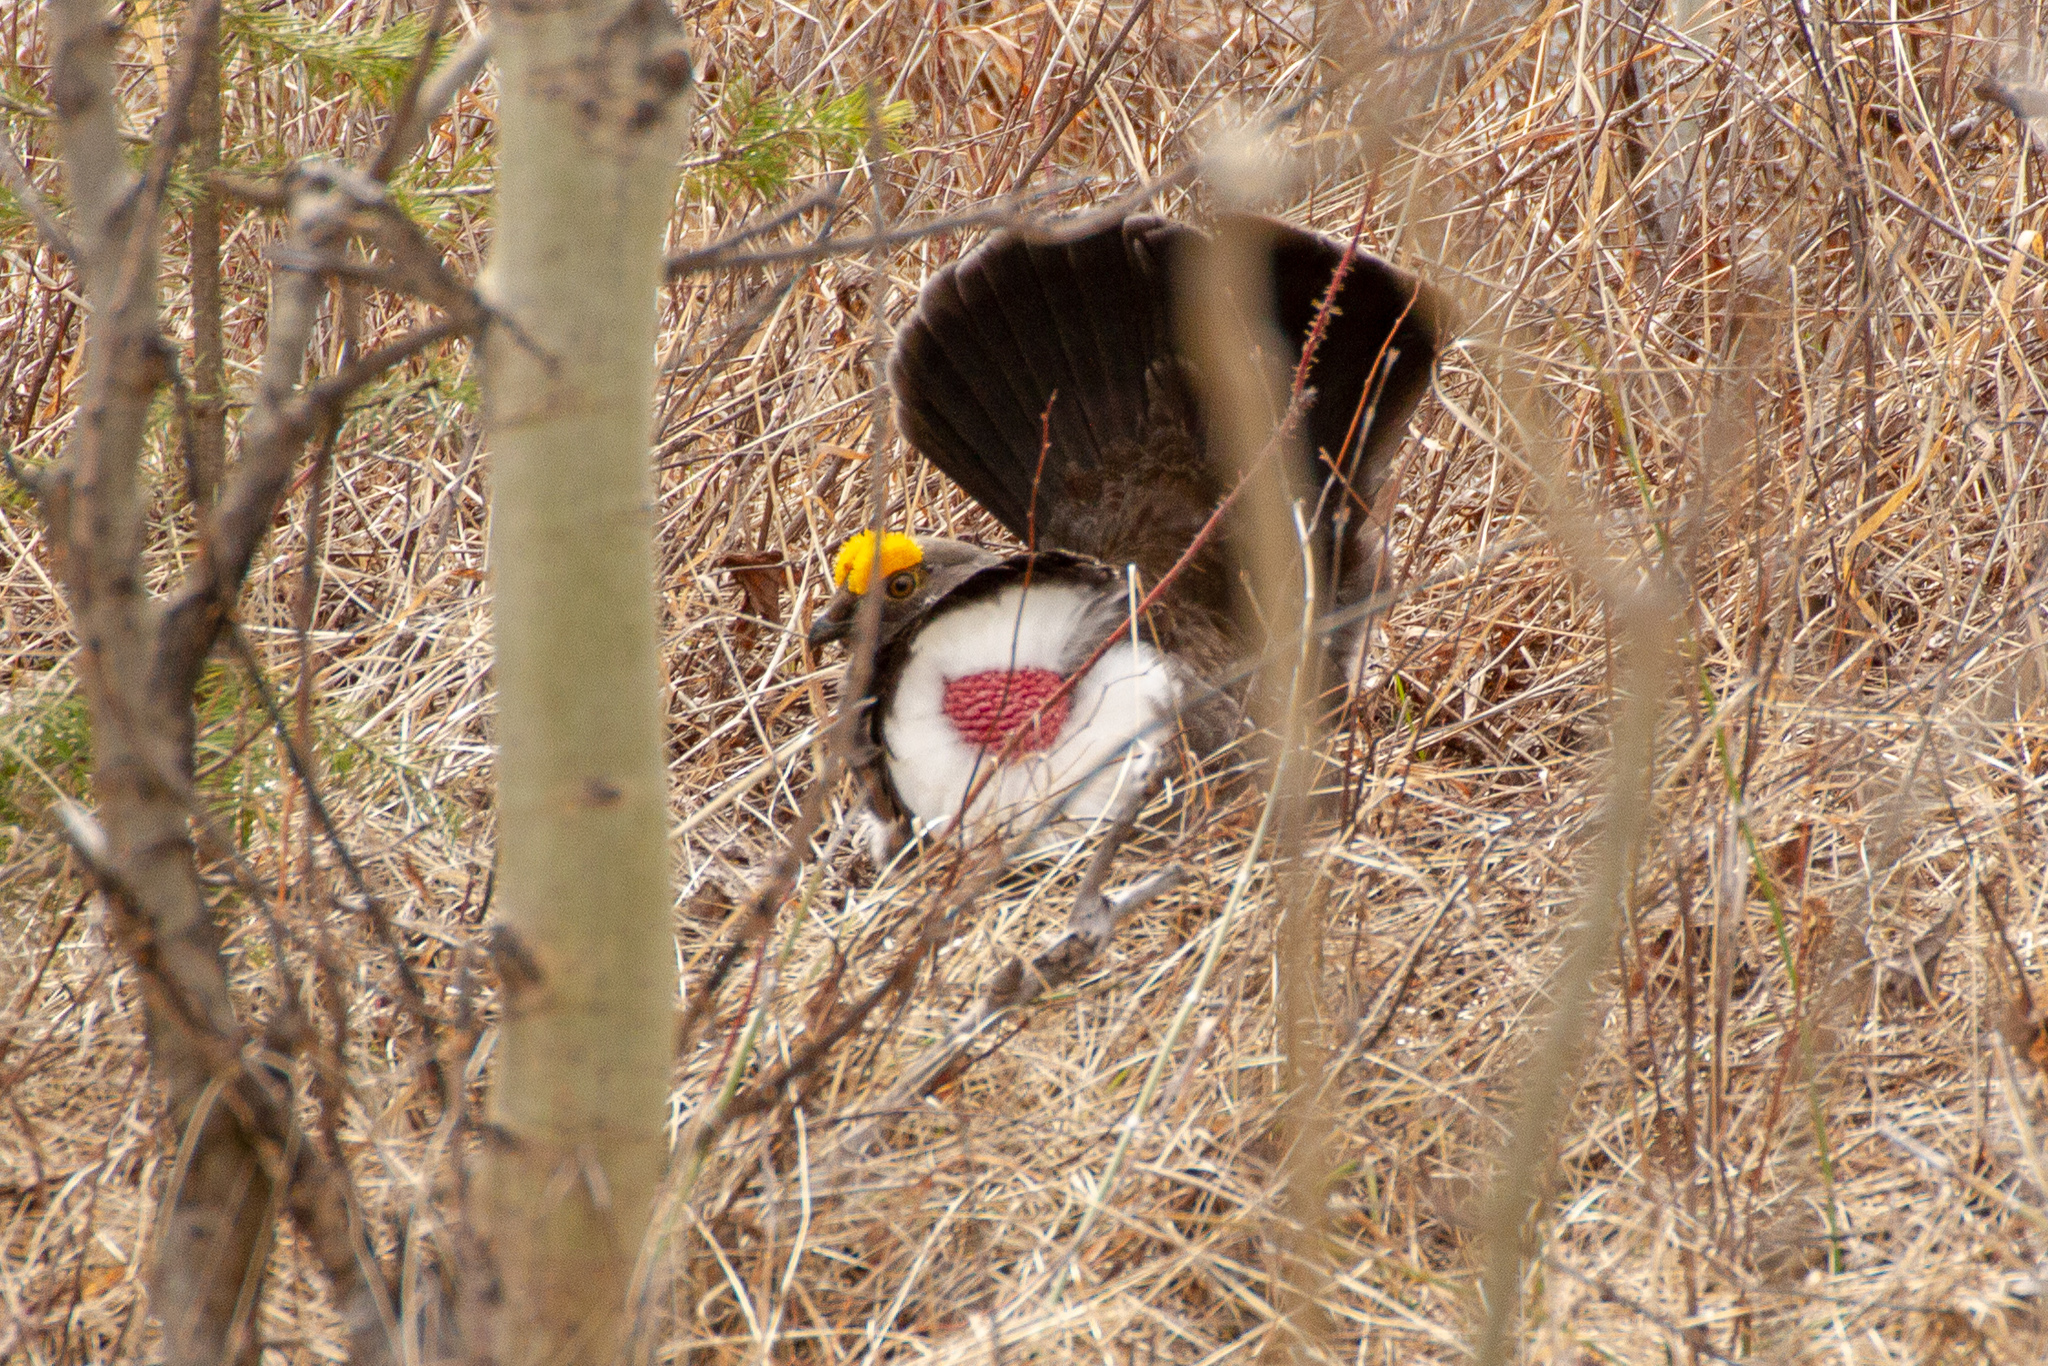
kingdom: Animalia
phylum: Chordata
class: Aves
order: Galliformes
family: Phasianidae
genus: Dendragapus
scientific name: Dendragapus obscurus
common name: Dusky grouse
